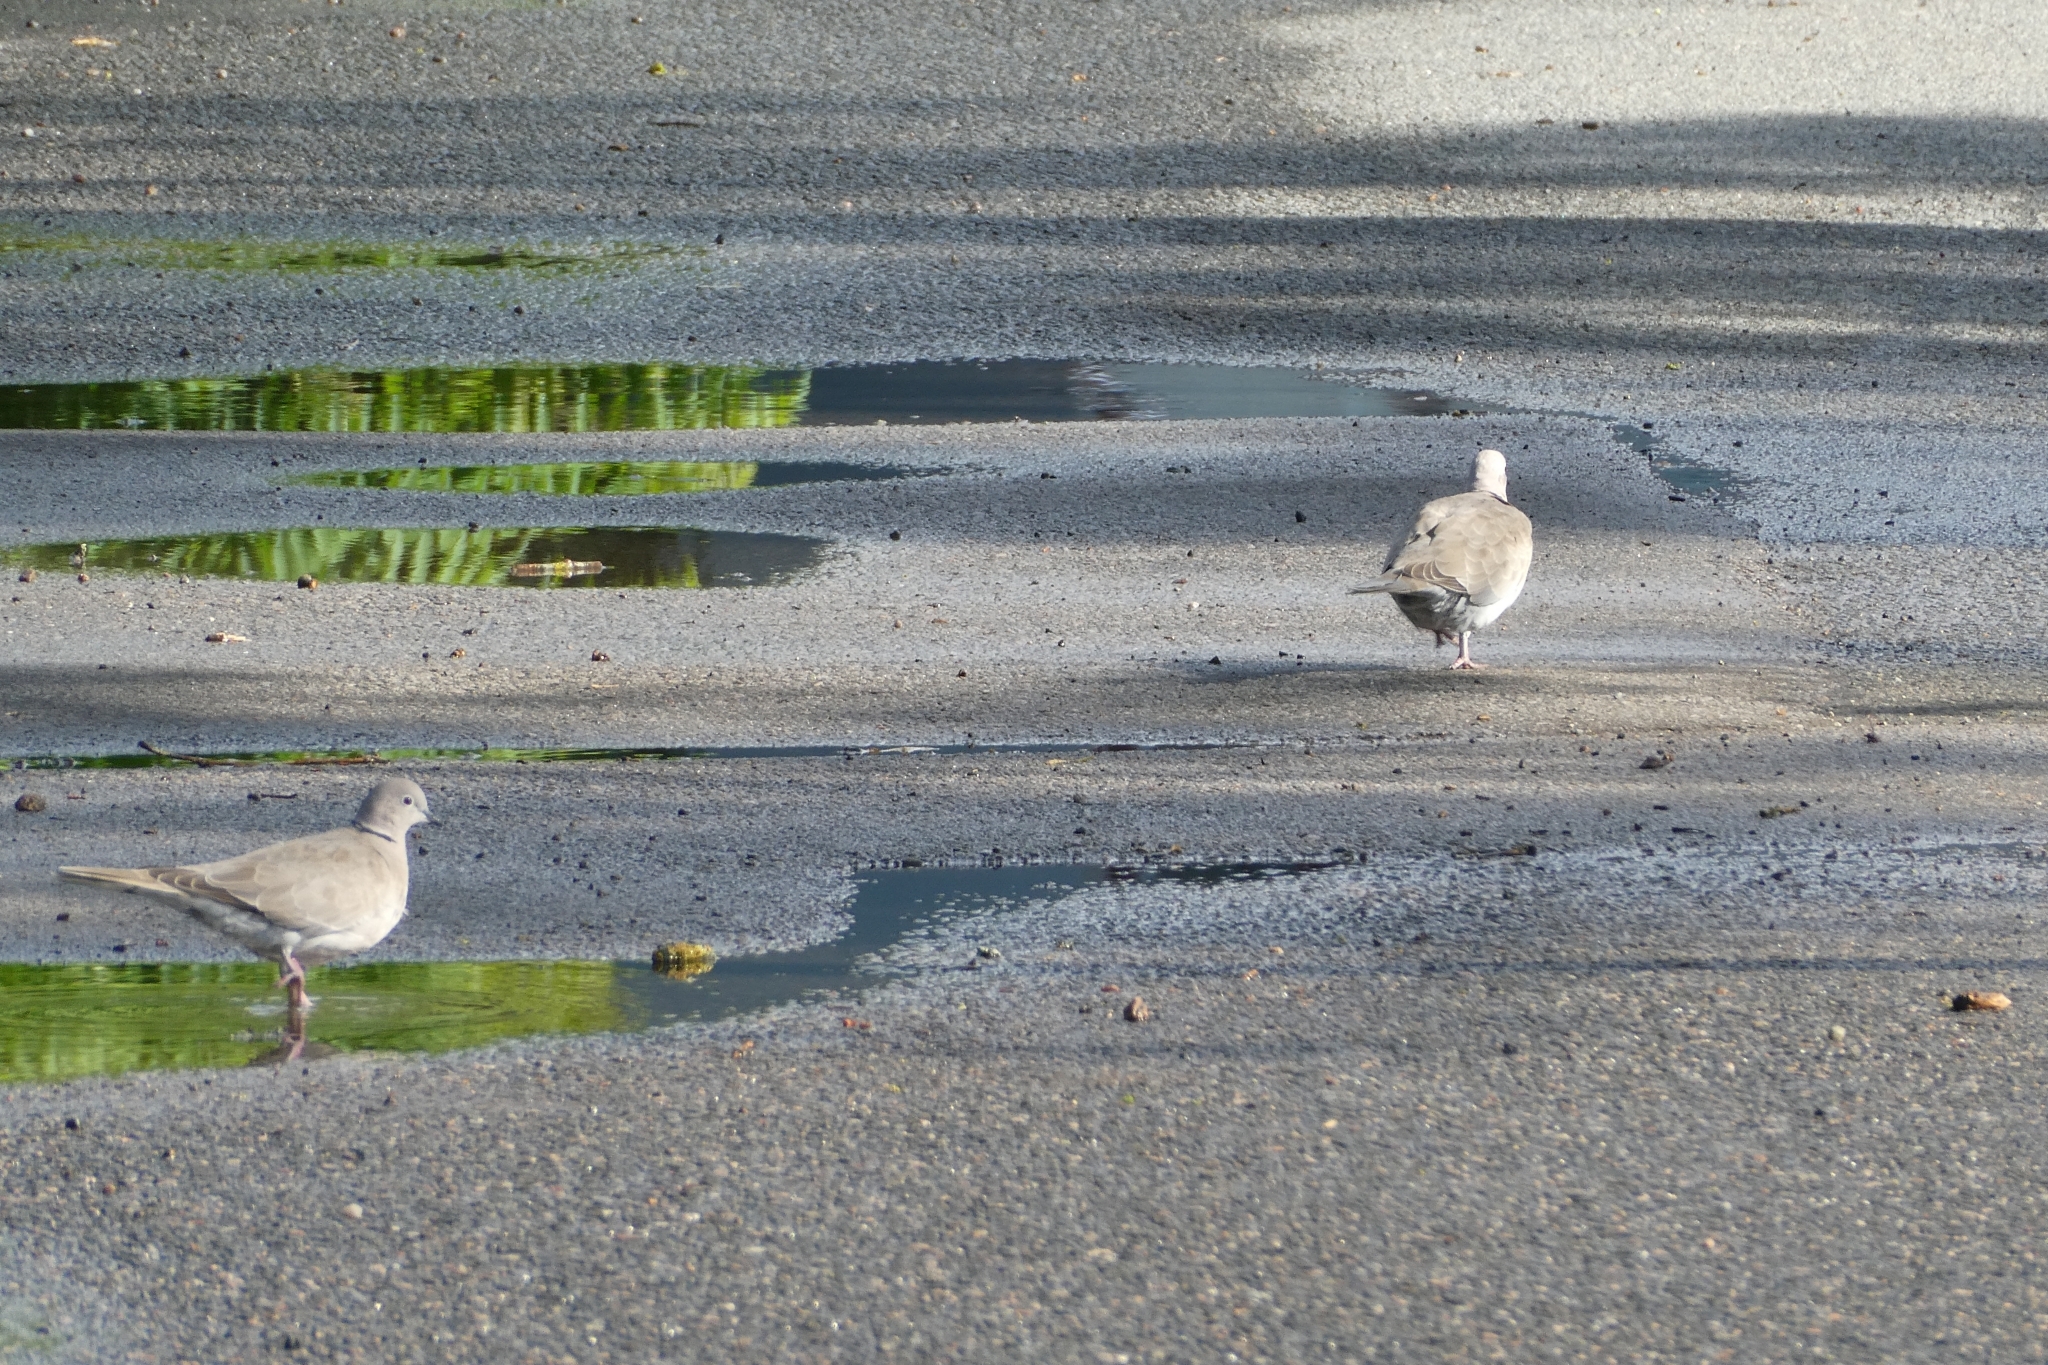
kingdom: Animalia
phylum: Chordata
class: Aves
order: Columbiformes
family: Columbidae
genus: Streptopelia
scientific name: Streptopelia decaocto
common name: Eurasian collared dove
